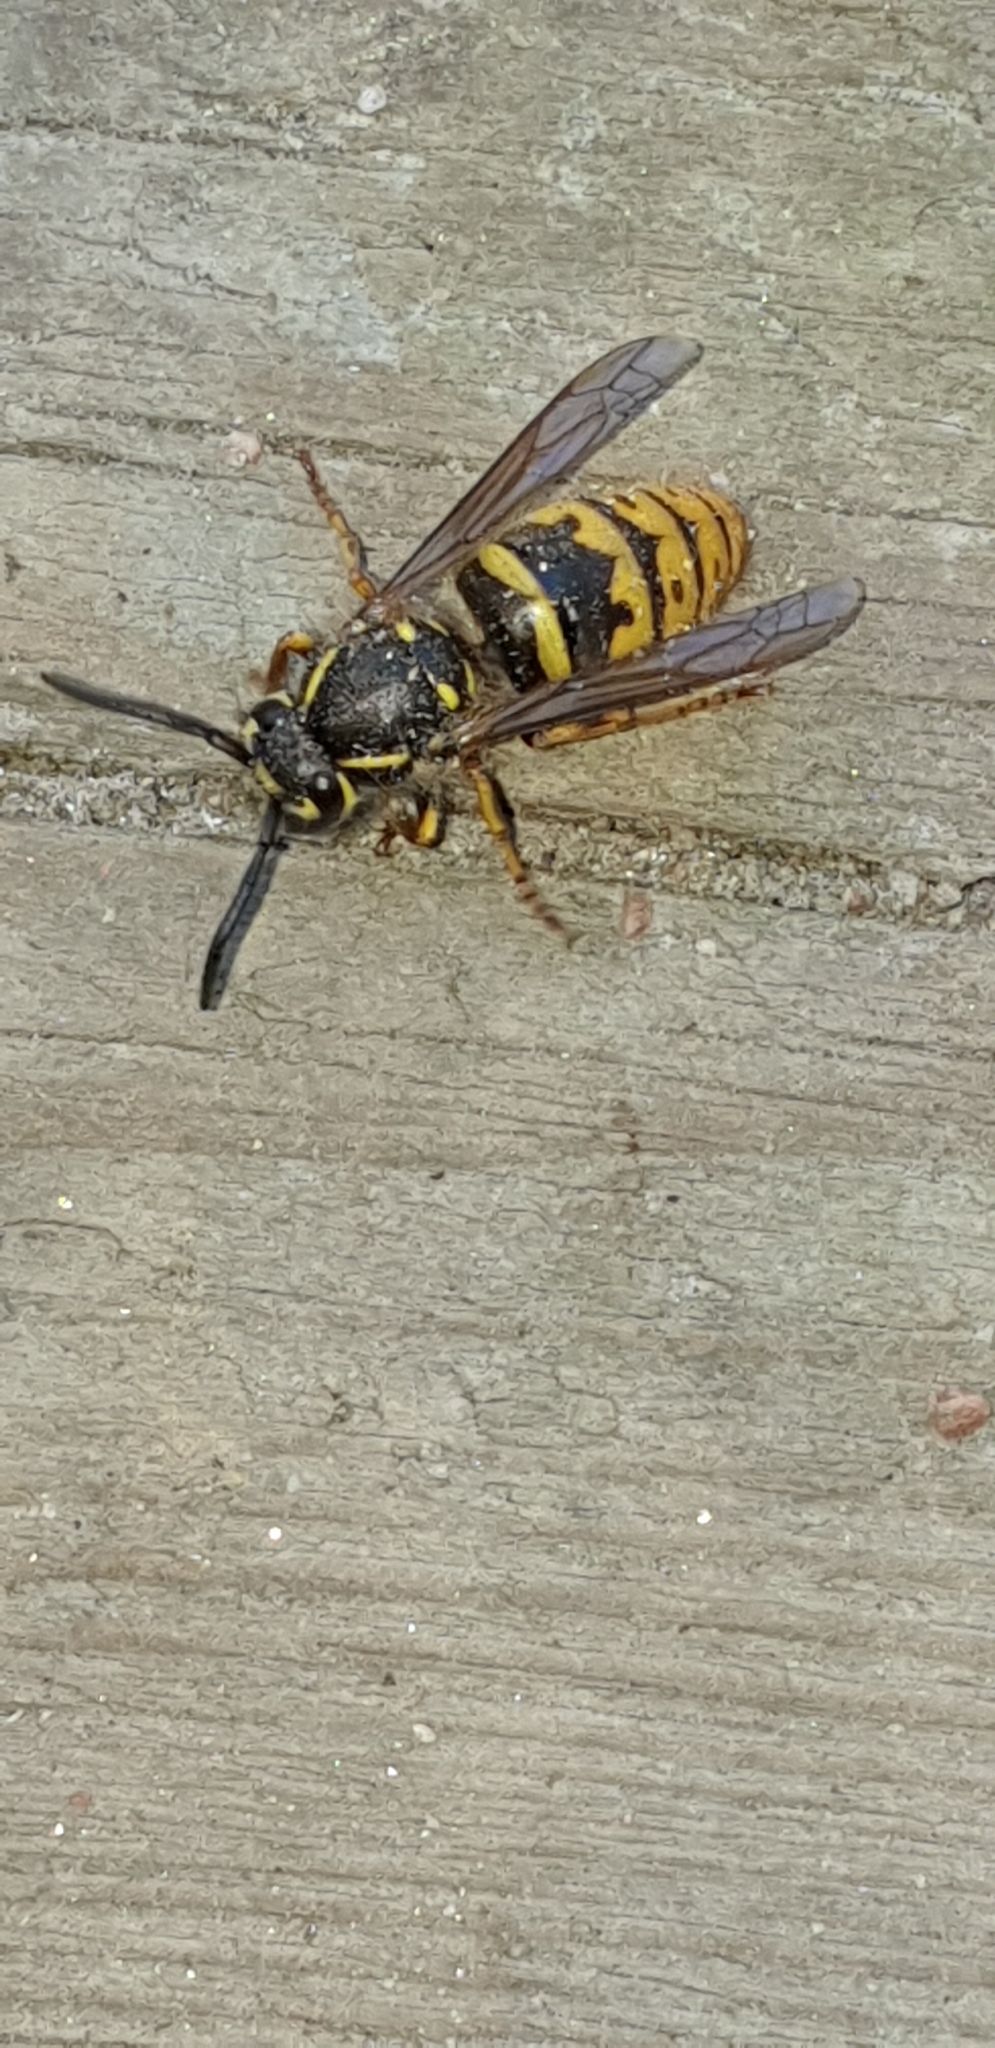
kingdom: Animalia
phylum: Arthropoda
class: Insecta
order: Hymenoptera
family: Vespidae
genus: Vespula
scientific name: Vespula vulgaris
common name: Common wasp
